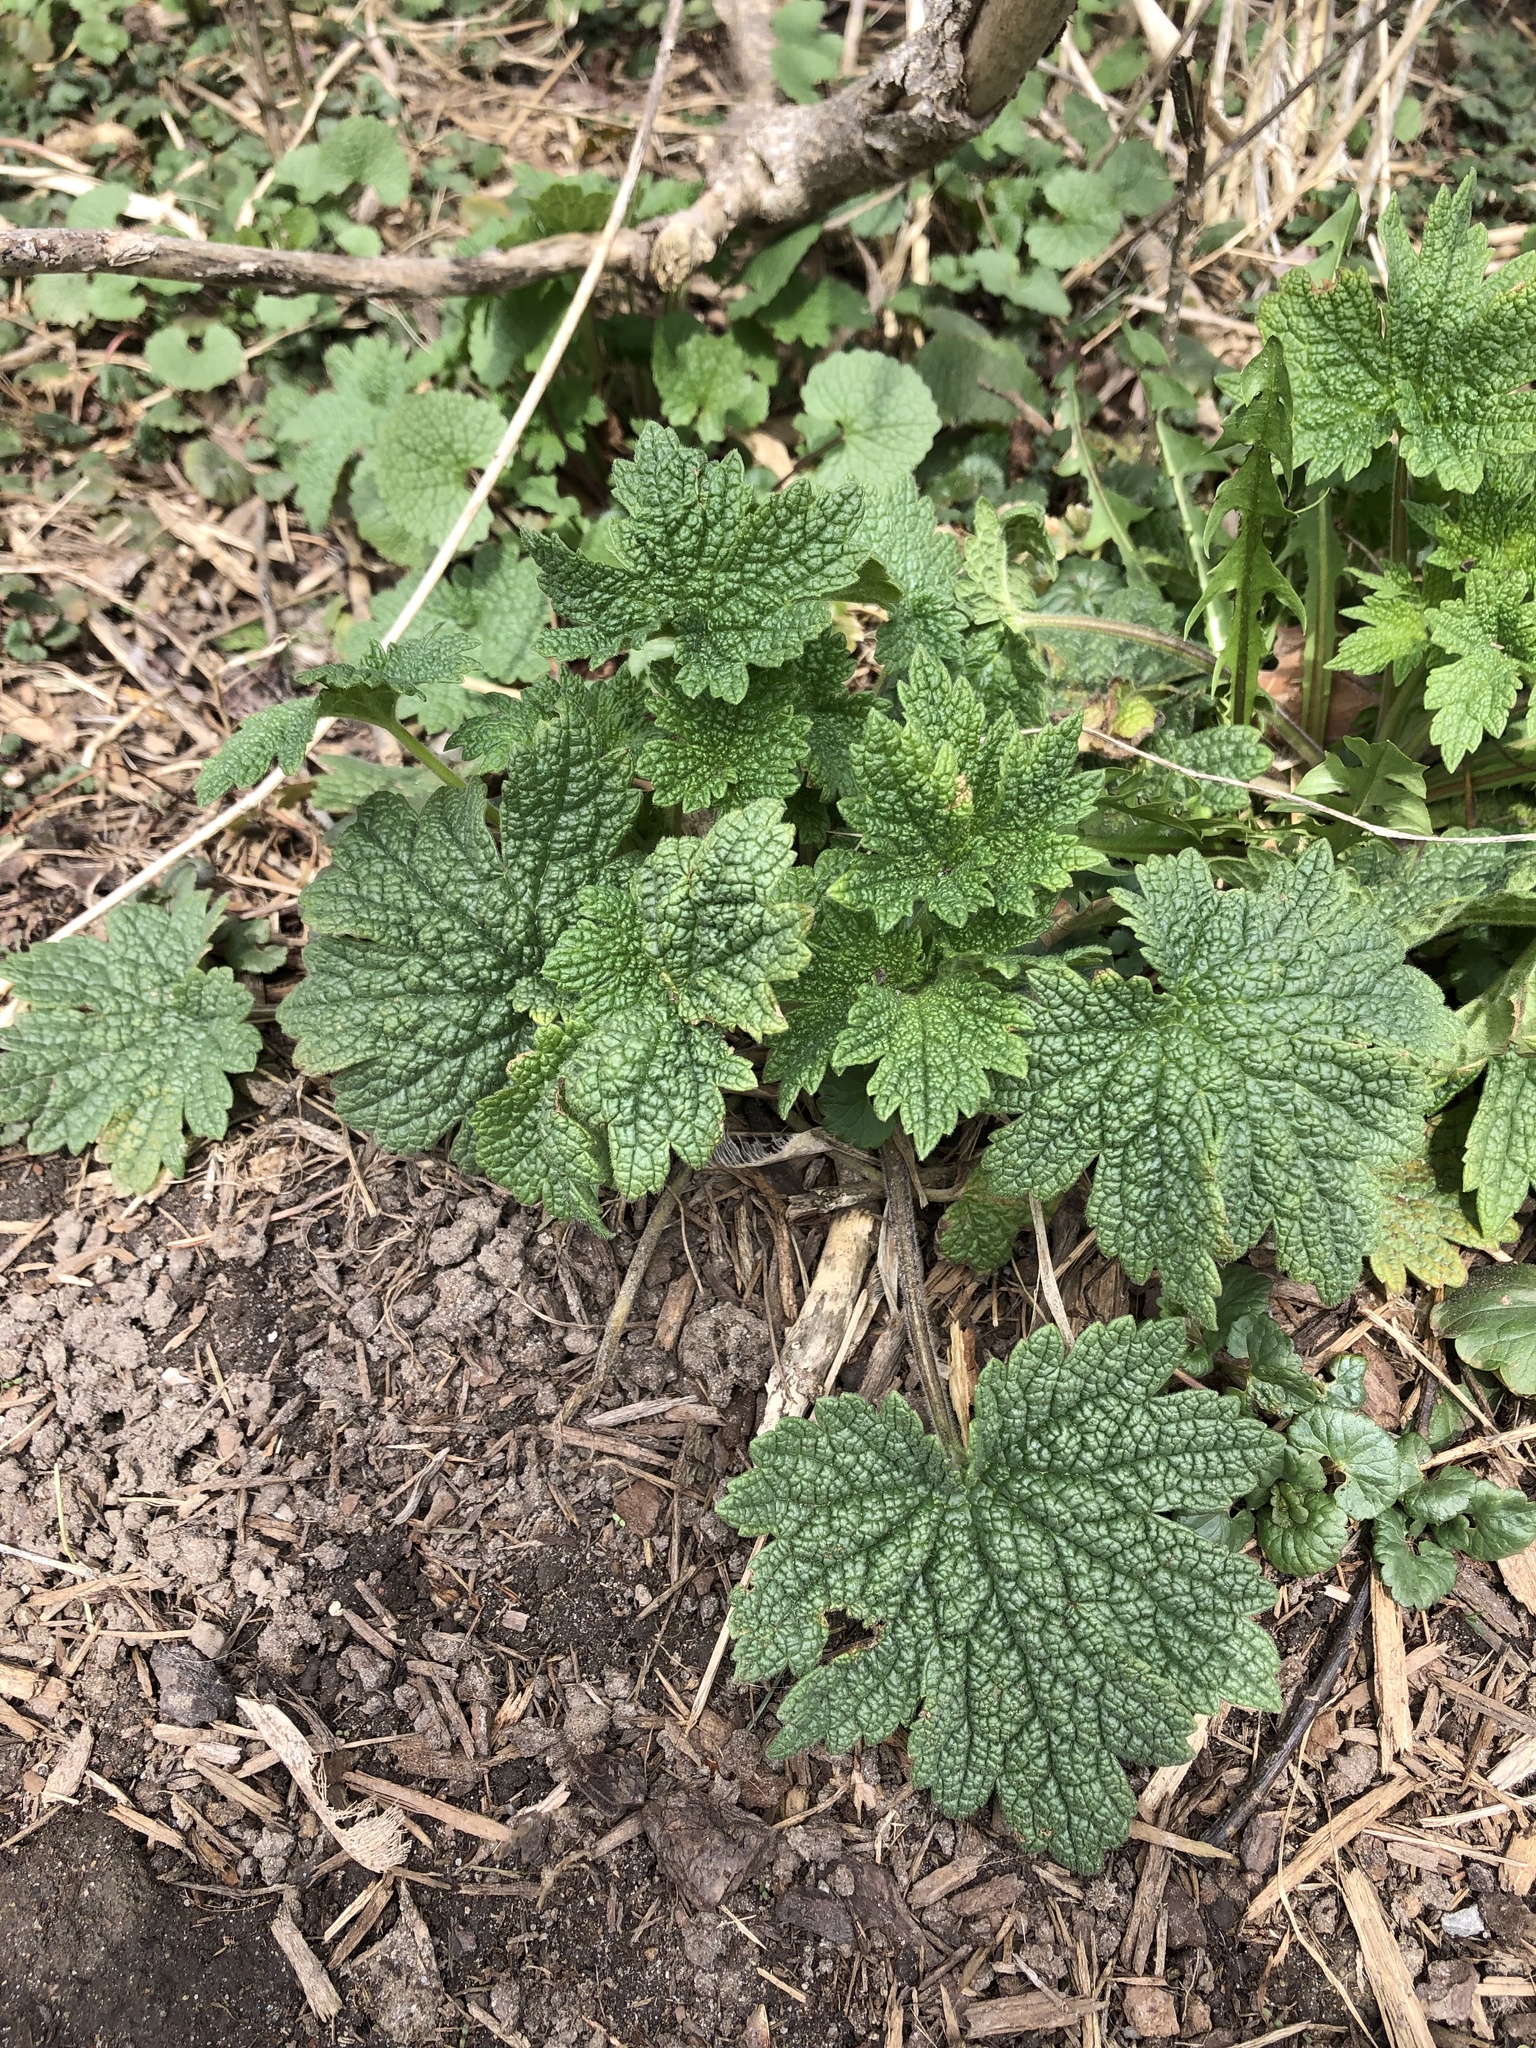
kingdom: Plantae
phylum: Tracheophyta
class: Magnoliopsida
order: Lamiales
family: Lamiaceae
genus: Leonurus
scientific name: Leonurus cardiaca
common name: Motherwort
